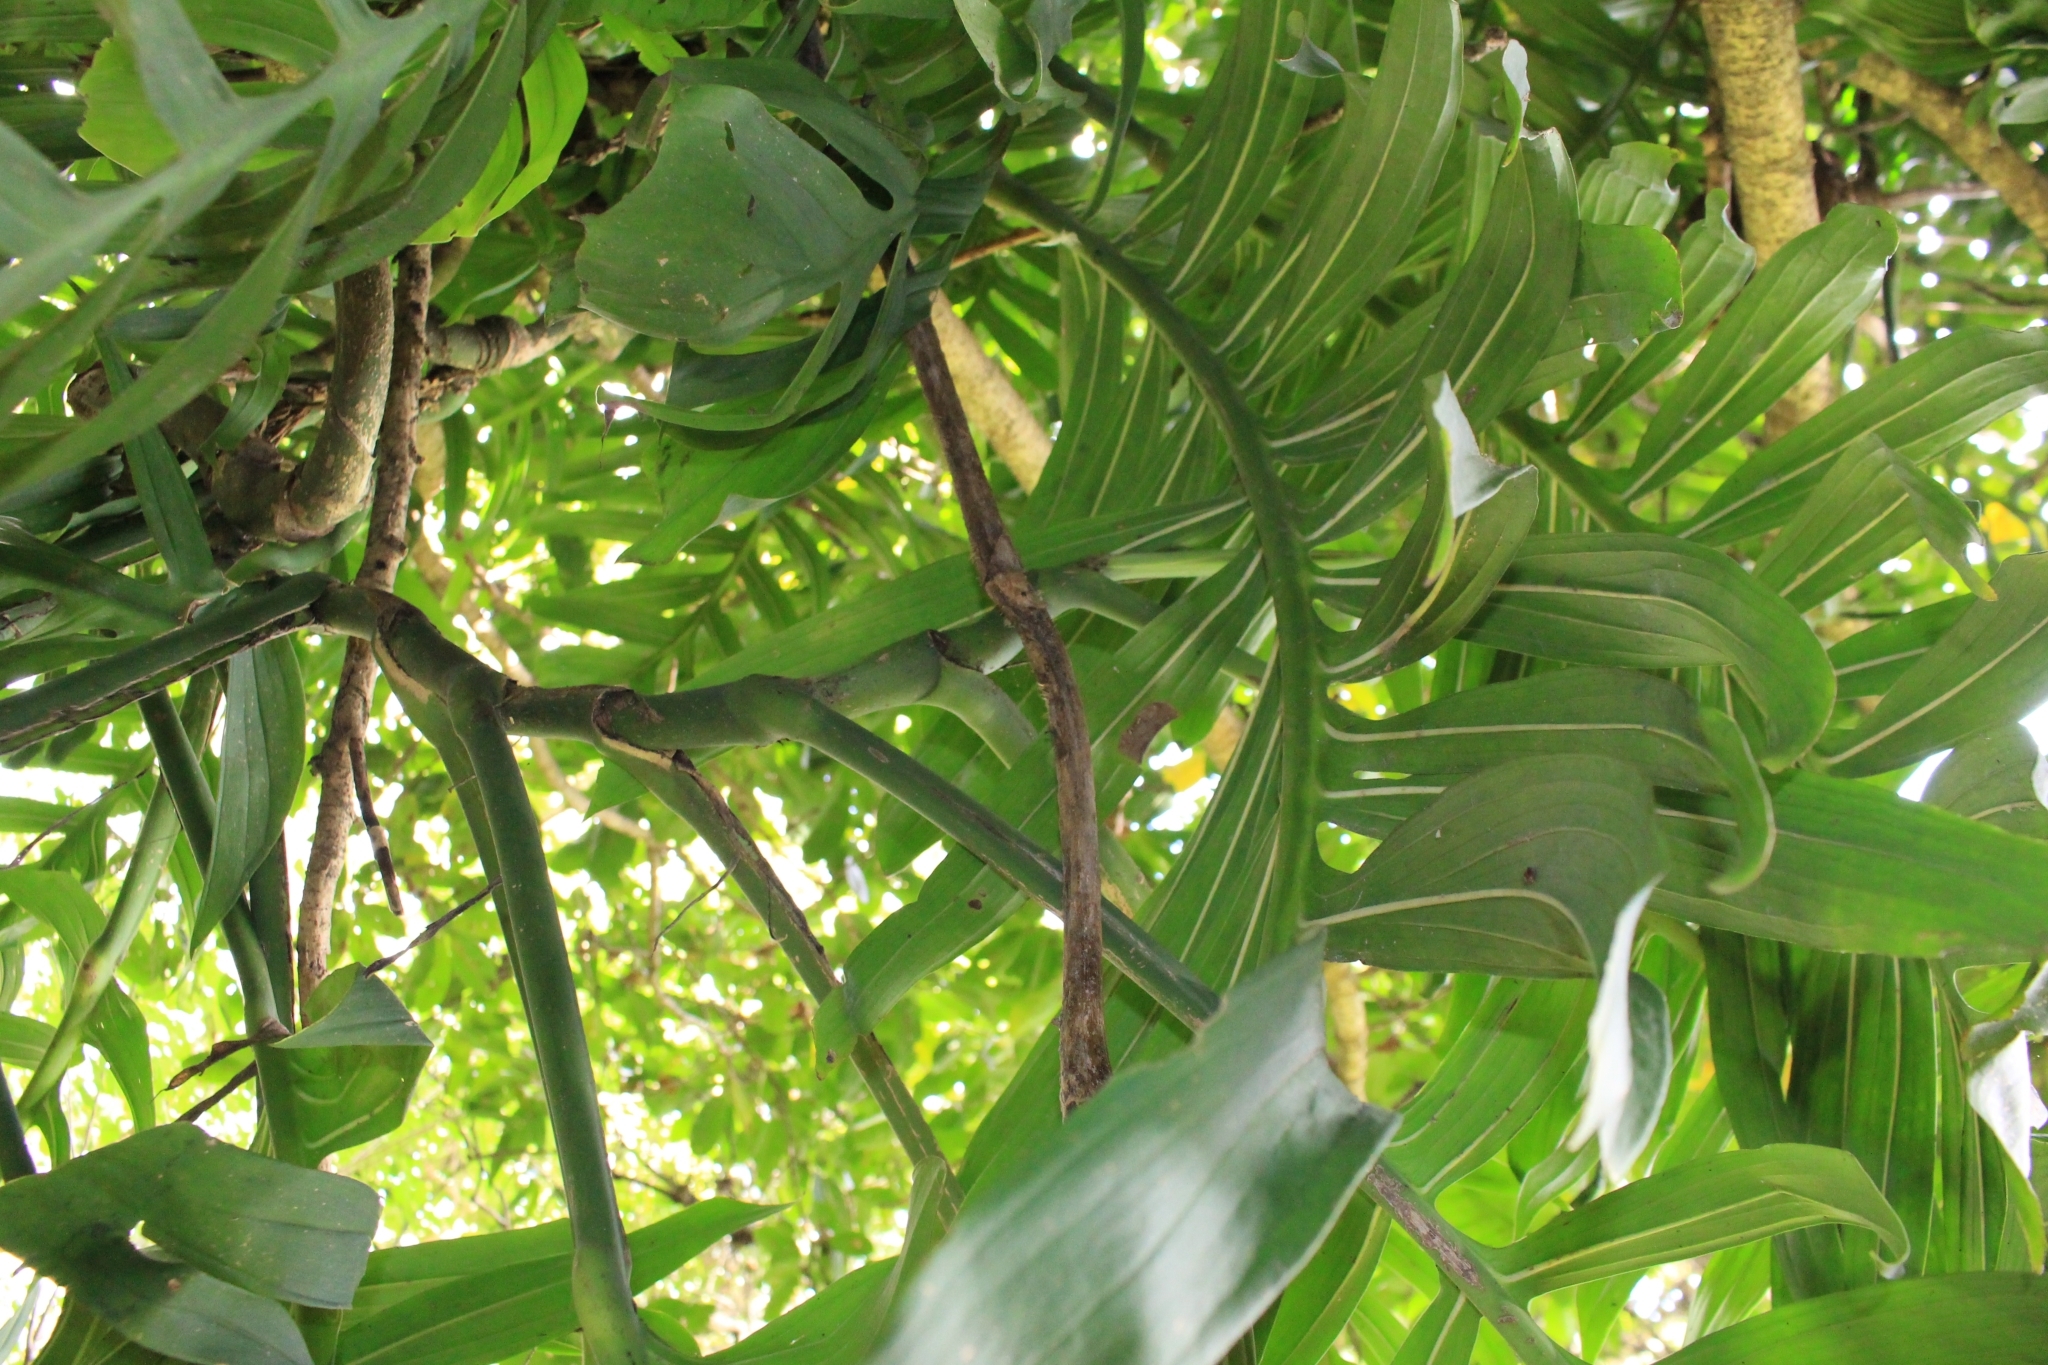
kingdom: Plantae
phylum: Tracheophyta
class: Liliopsida
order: Alismatales
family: Araceae
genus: Monstera
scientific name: Monstera tenuis
